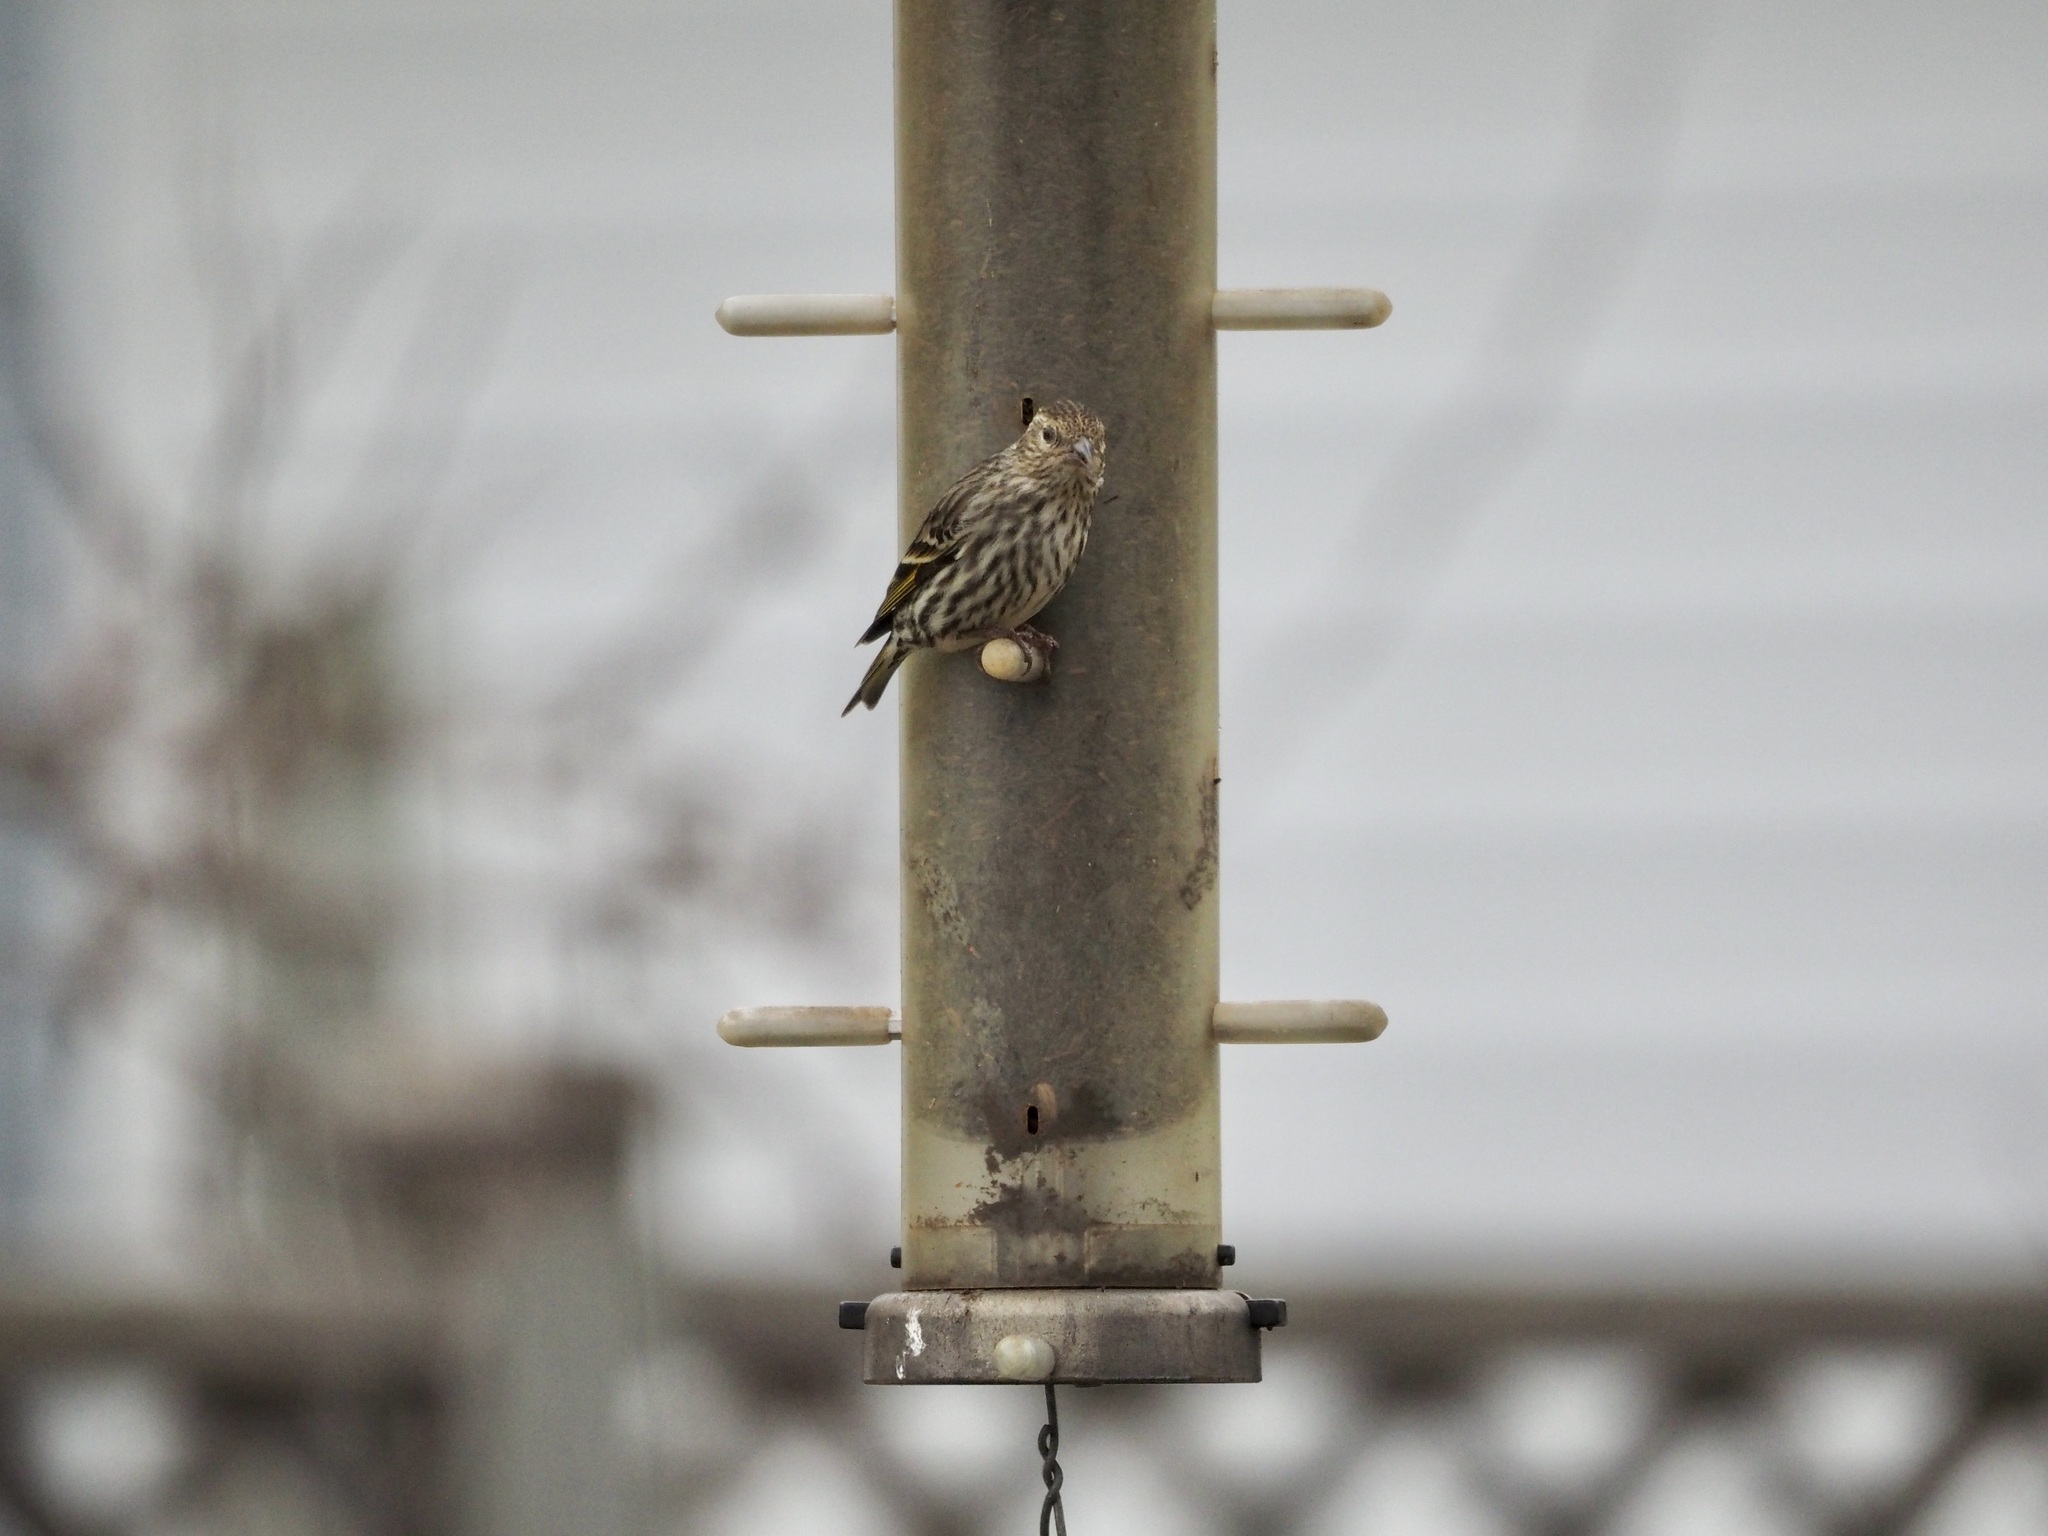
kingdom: Animalia
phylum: Chordata
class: Aves
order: Passeriformes
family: Fringillidae
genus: Spinus
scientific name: Spinus pinus
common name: Pine siskin
